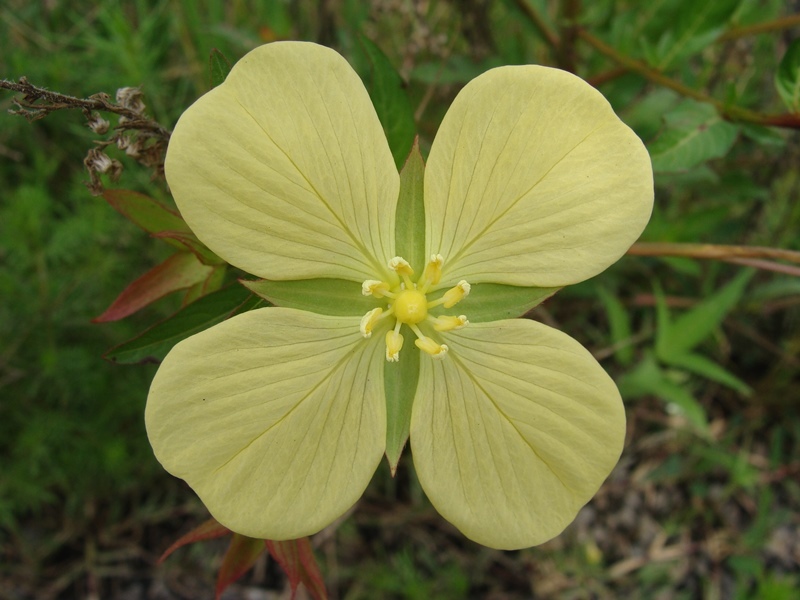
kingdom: Plantae
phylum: Tracheophyta
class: Magnoliopsida
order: Myrtales
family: Onagraceae
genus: Ludwigia
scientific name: Ludwigia octovalvis
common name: Water-primrose
